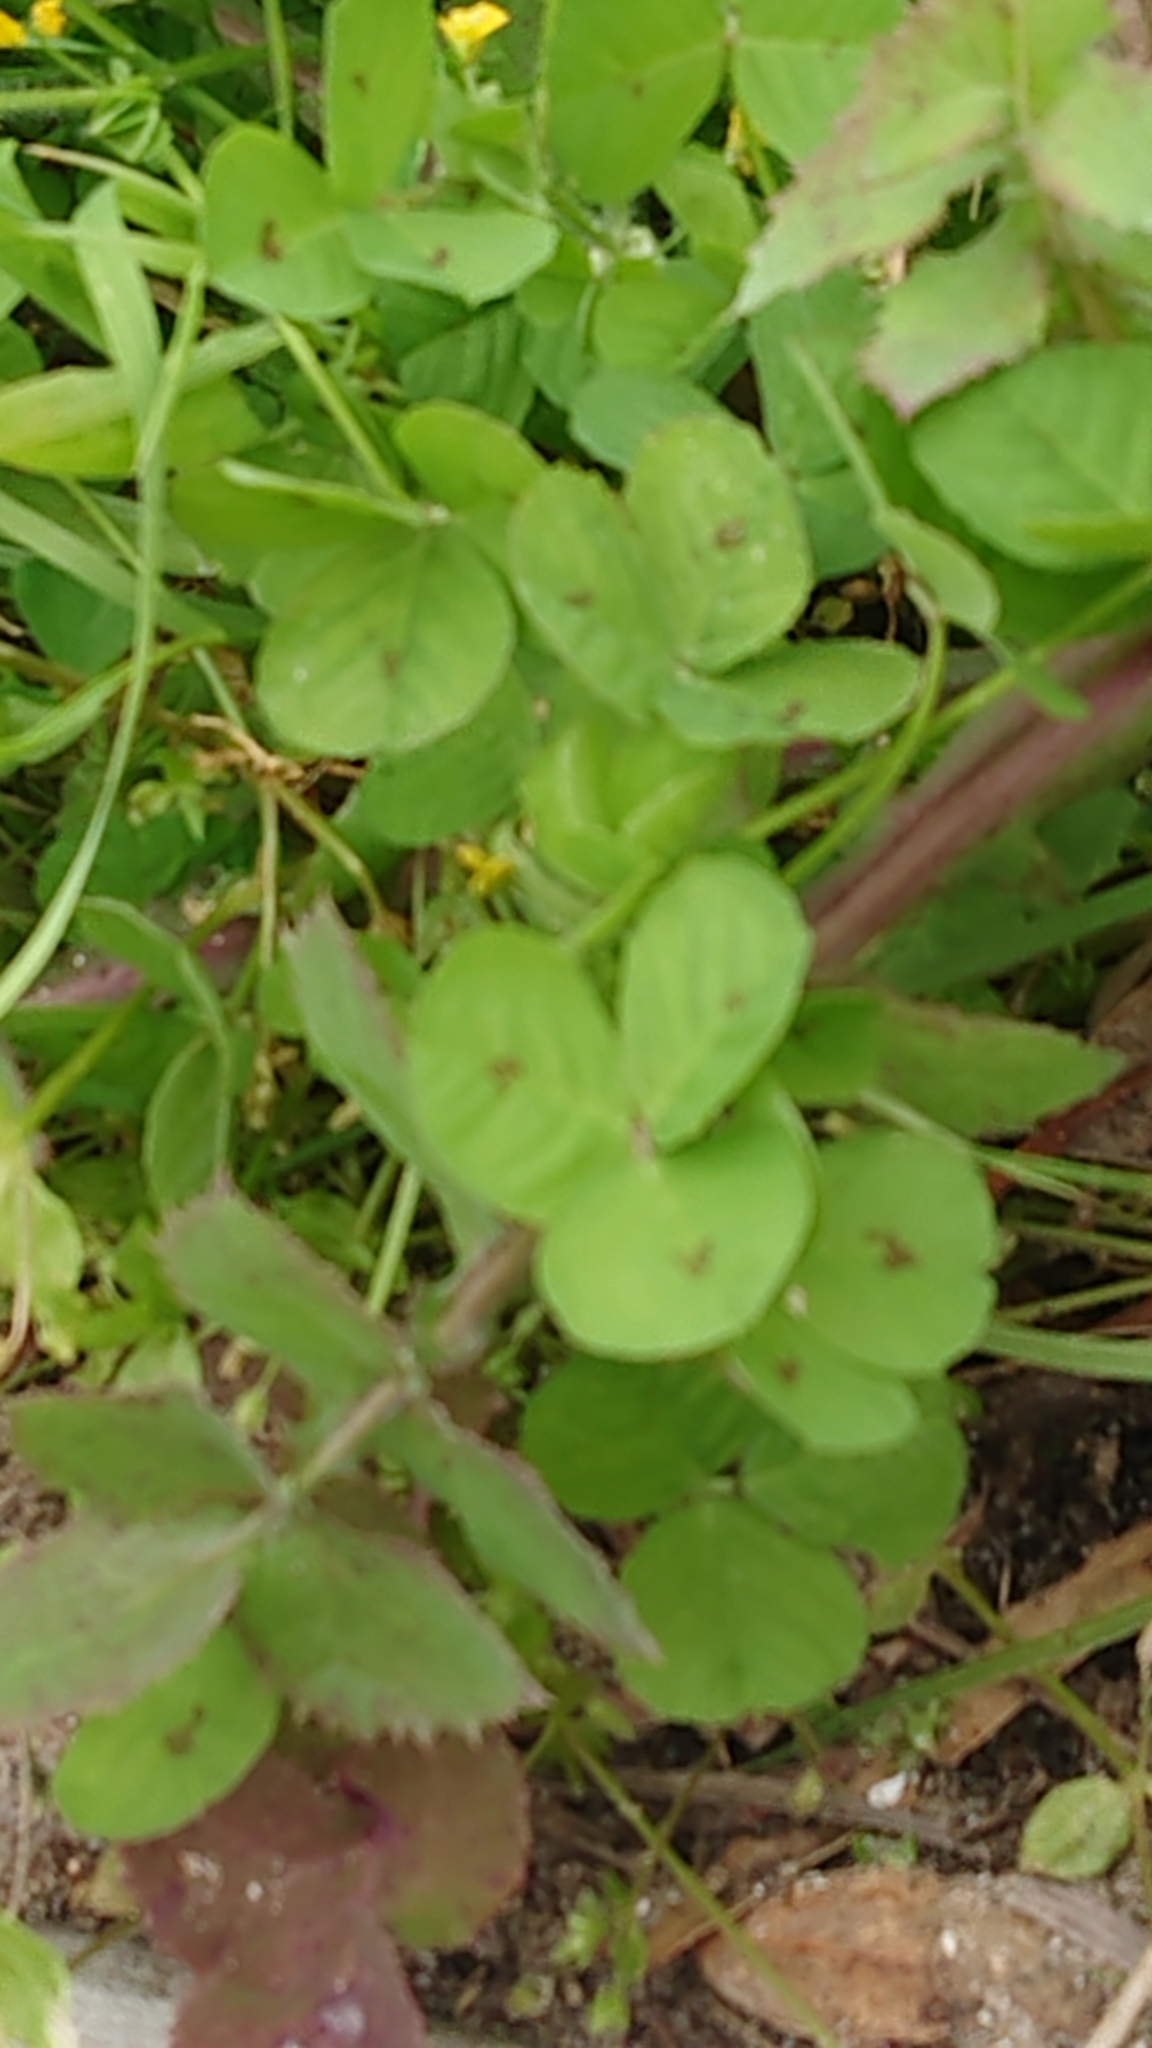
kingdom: Plantae
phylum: Tracheophyta
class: Magnoliopsida
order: Fabales
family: Fabaceae
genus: Medicago
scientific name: Medicago arabica
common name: Spotted medick
